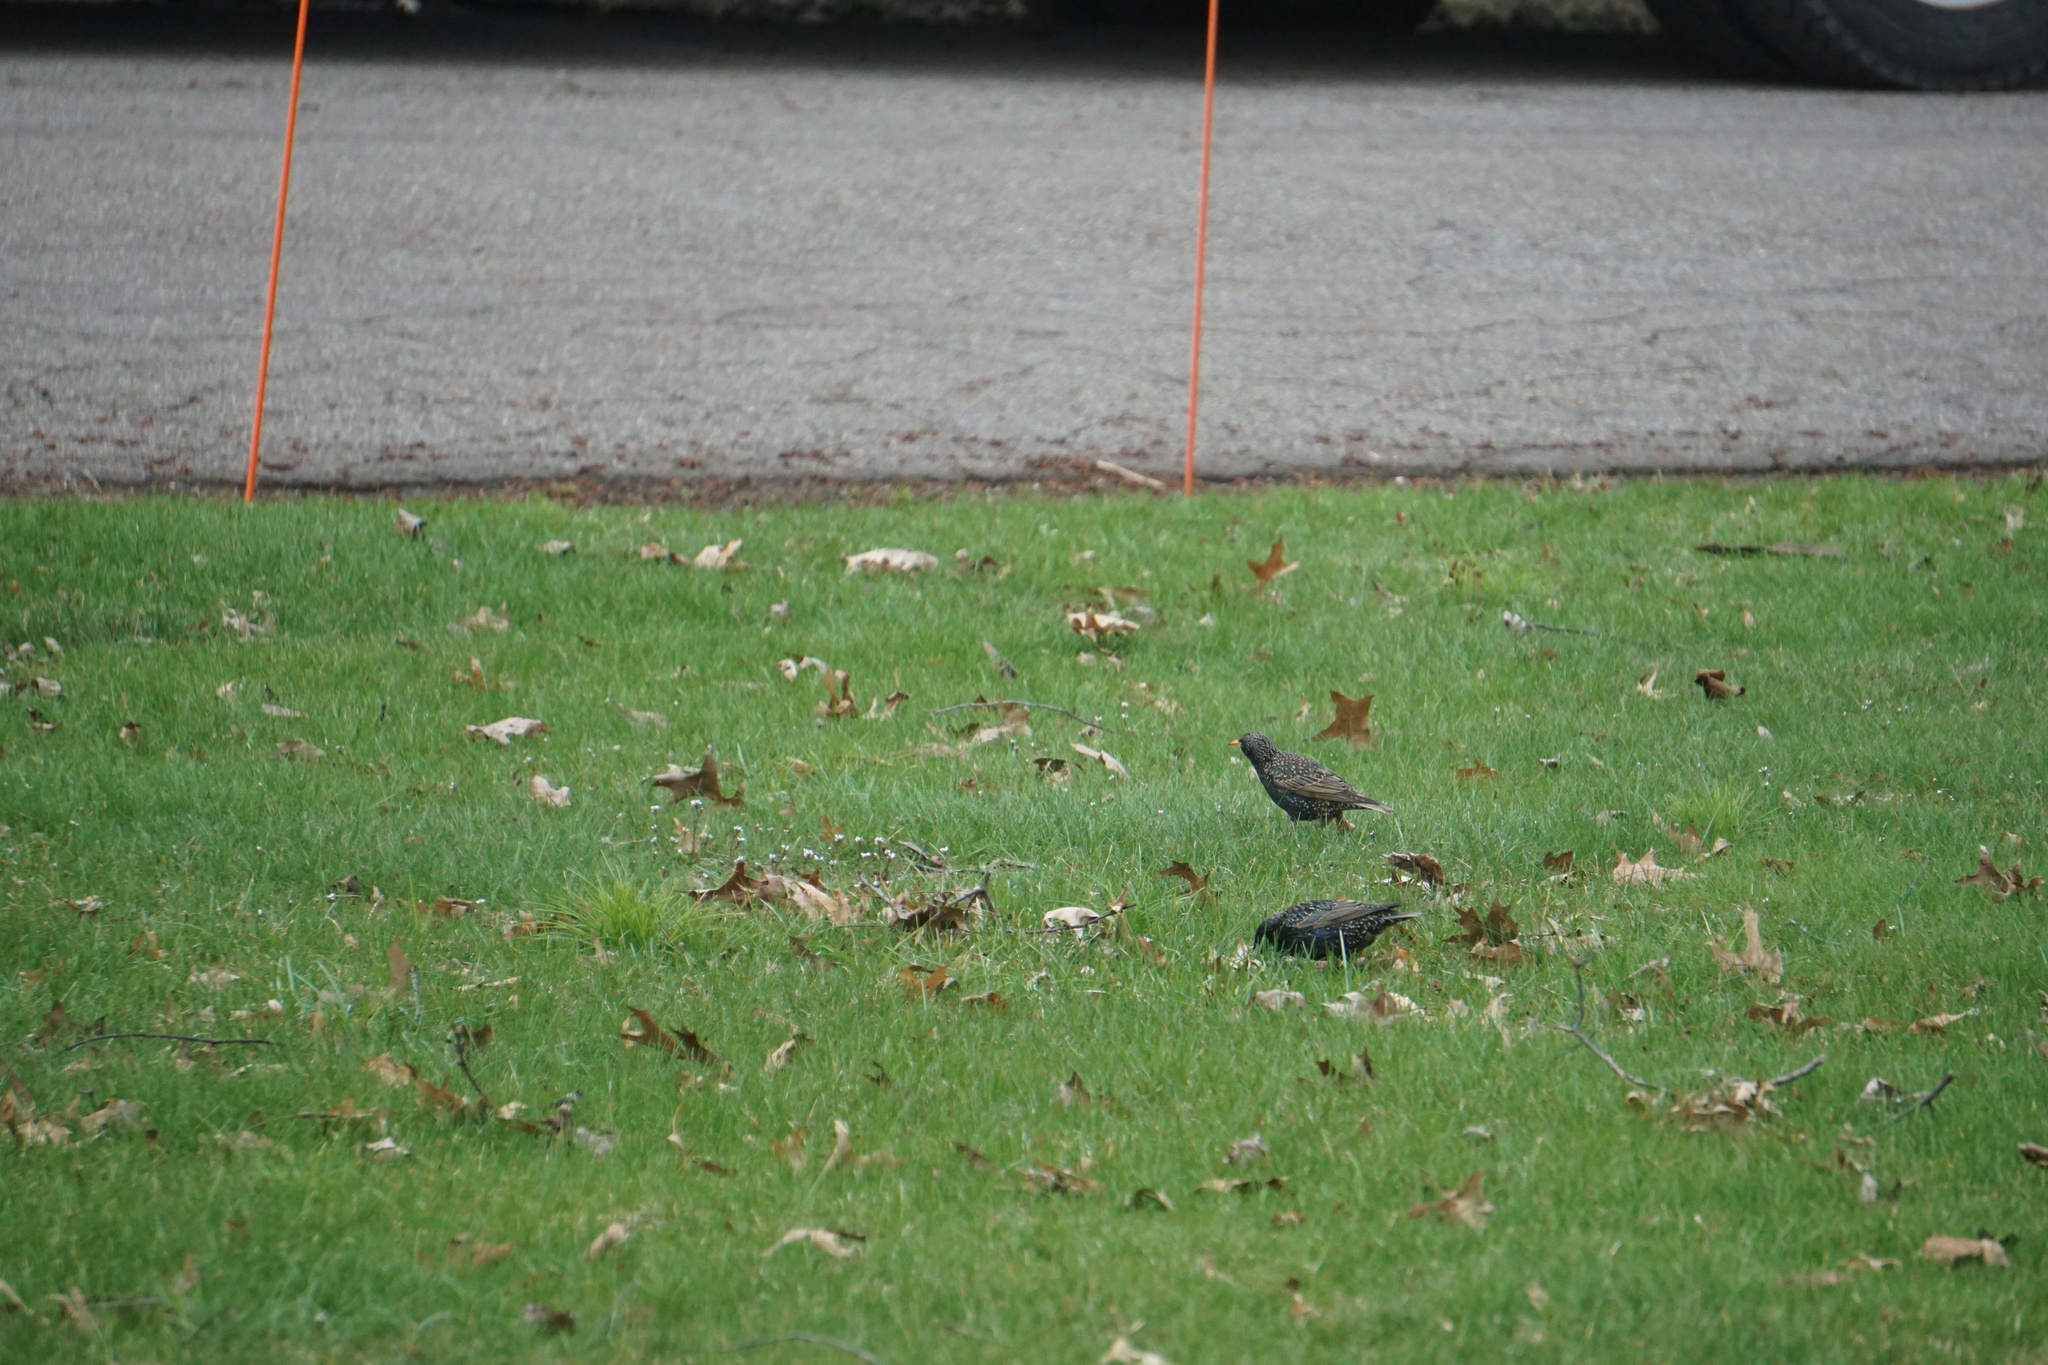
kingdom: Animalia
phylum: Chordata
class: Aves
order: Passeriformes
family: Sturnidae
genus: Sturnus
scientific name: Sturnus vulgaris
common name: Common starling
